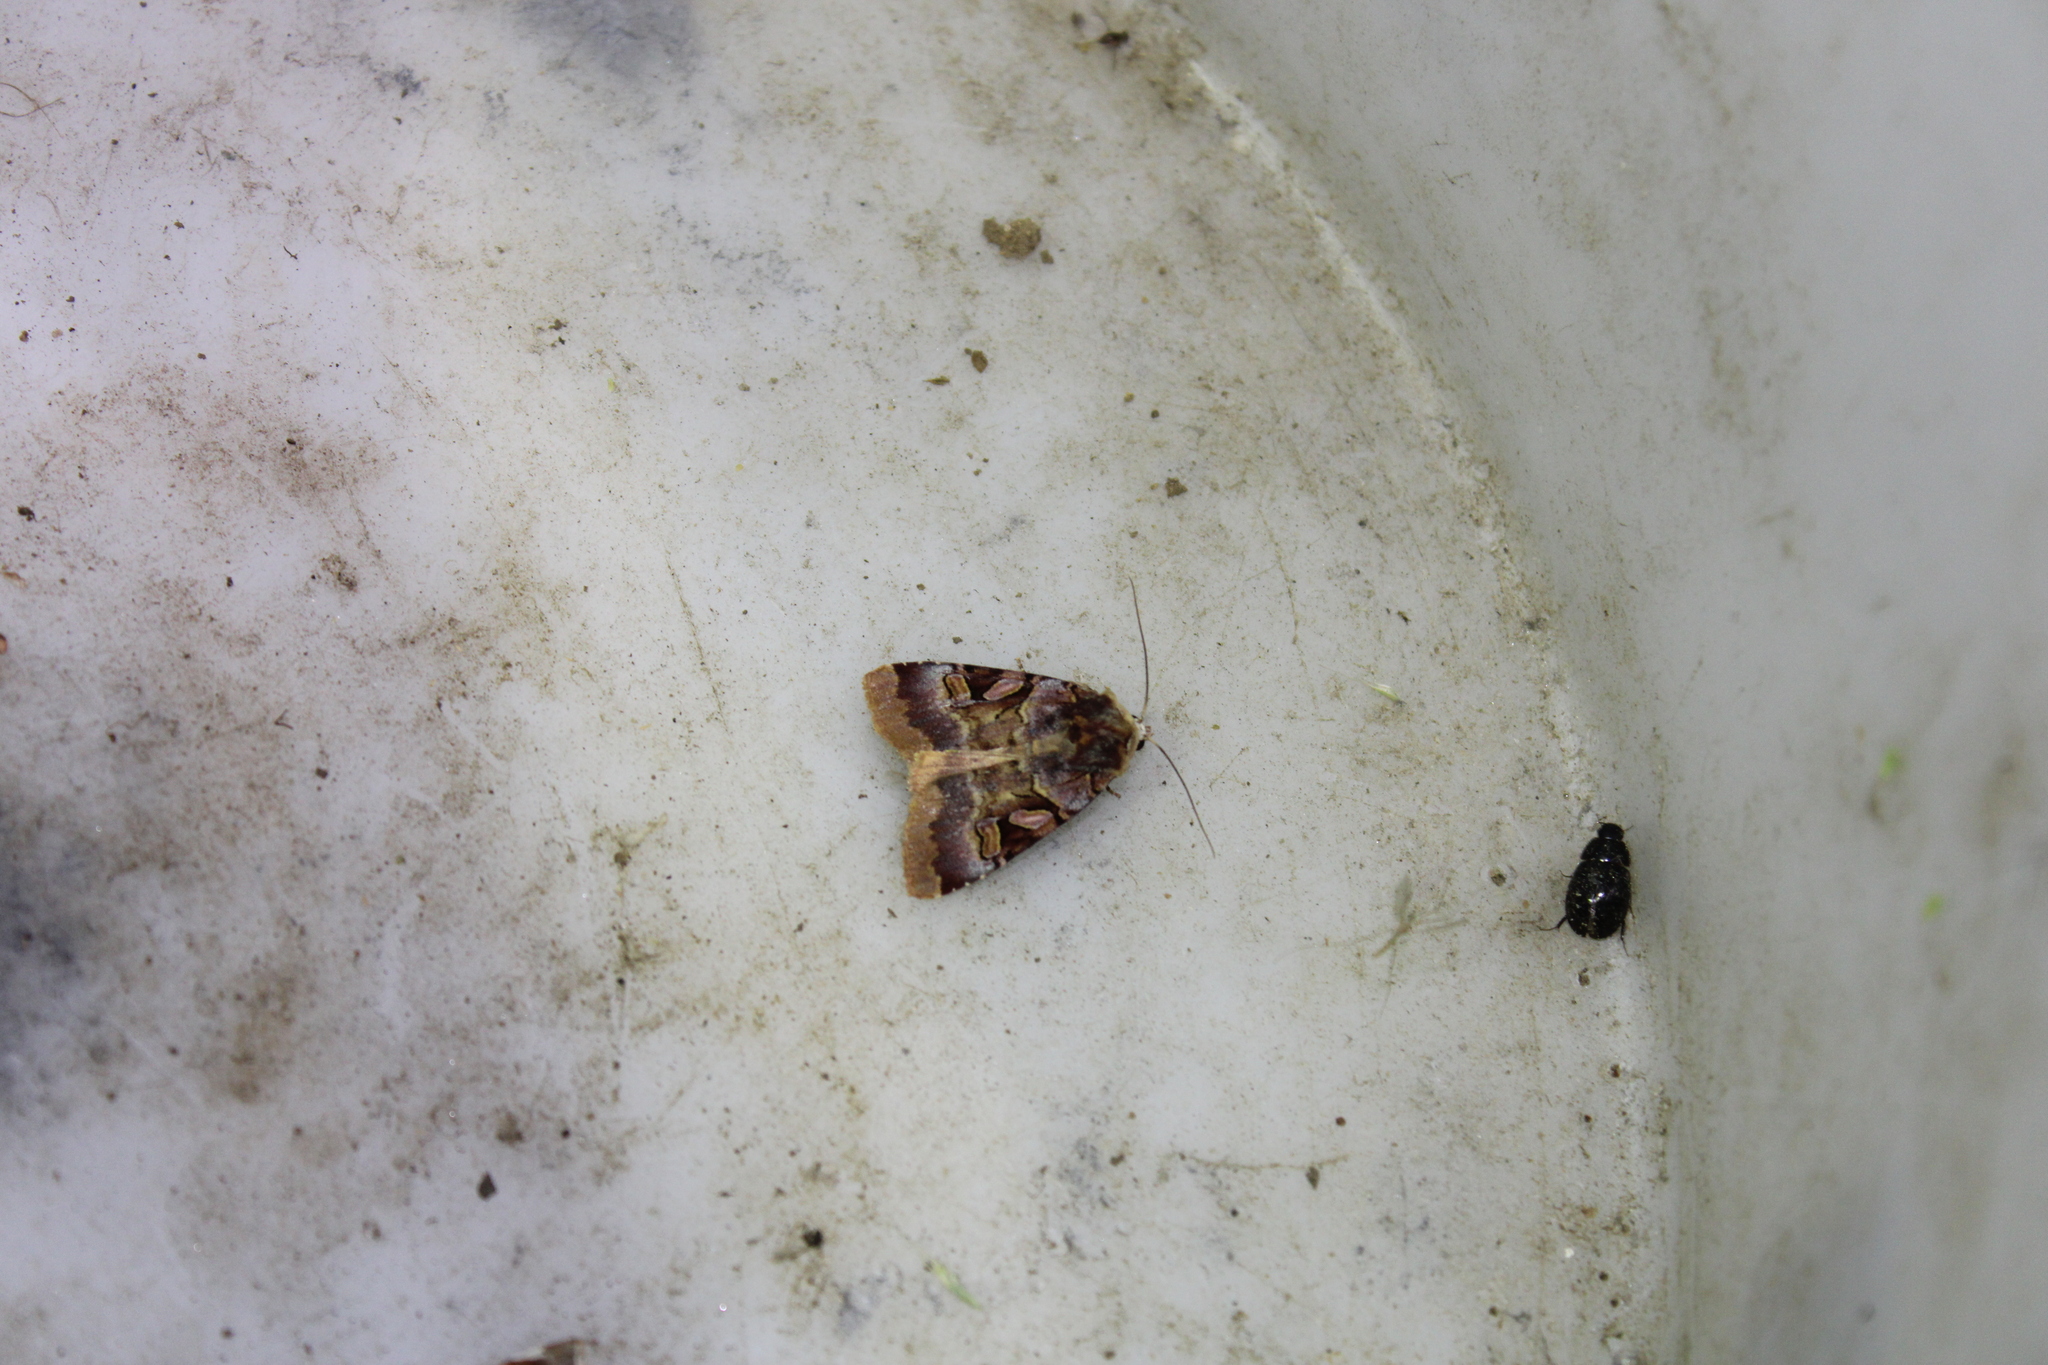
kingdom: Animalia
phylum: Arthropoda
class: Insecta
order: Lepidoptera
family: Noctuidae
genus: Xestia
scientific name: Xestia oblata
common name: Rosy dart
